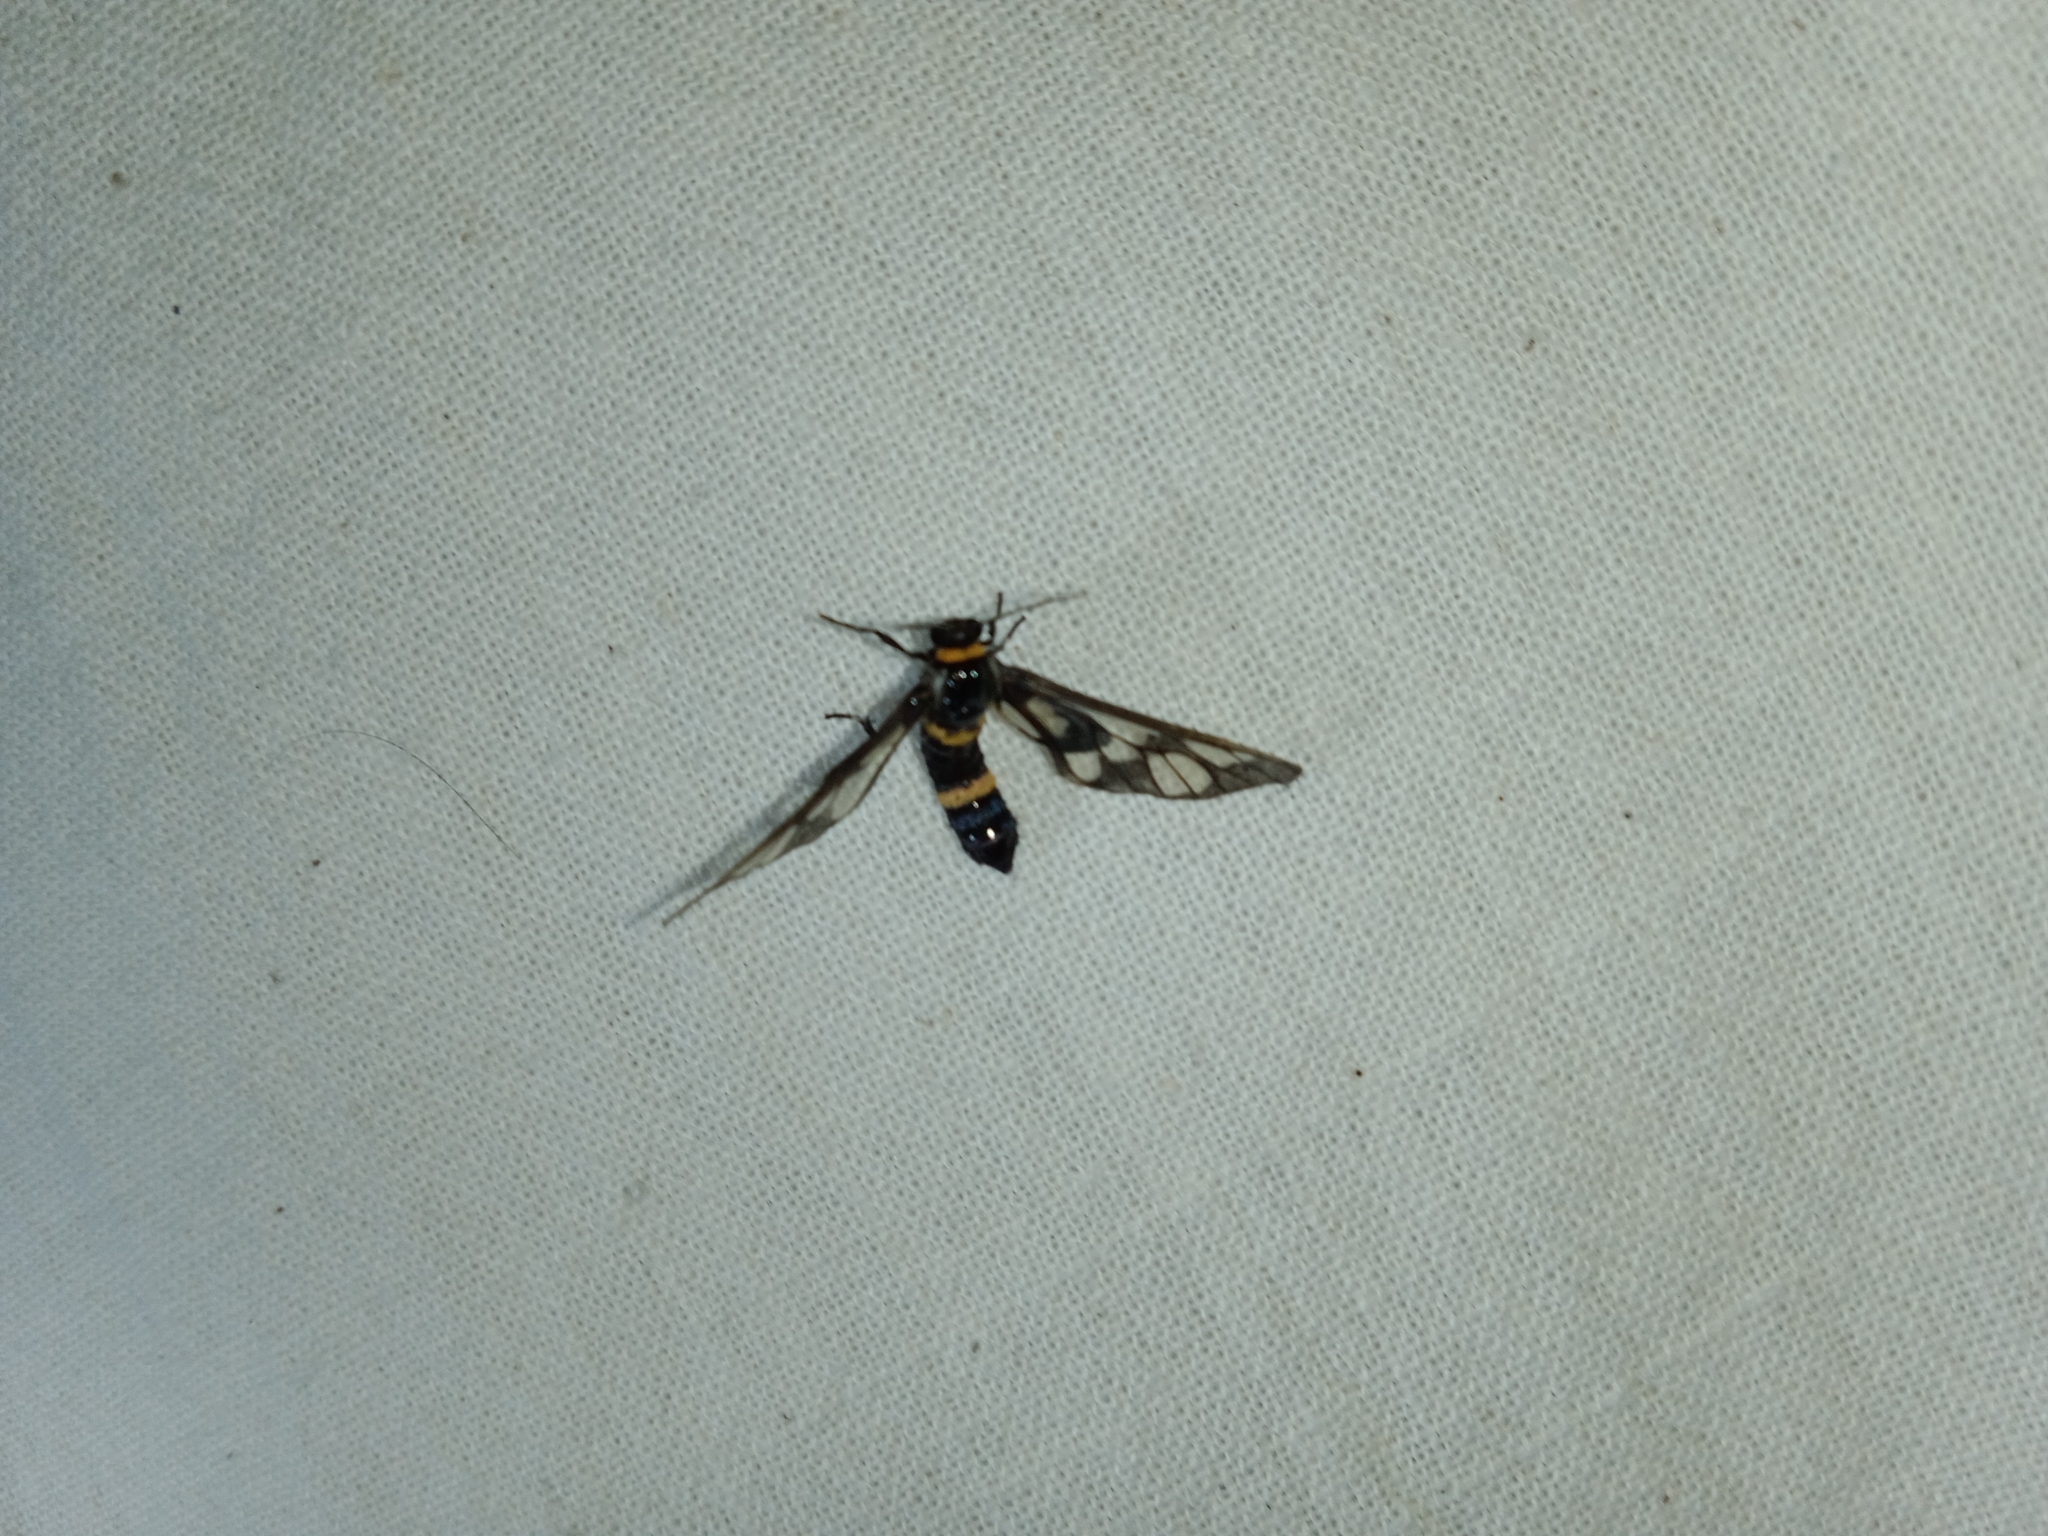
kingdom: Animalia
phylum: Arthropoda
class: Insecta
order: Lepidoptera
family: Erebidae
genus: Syntomoides
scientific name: Syntomoides imaon
